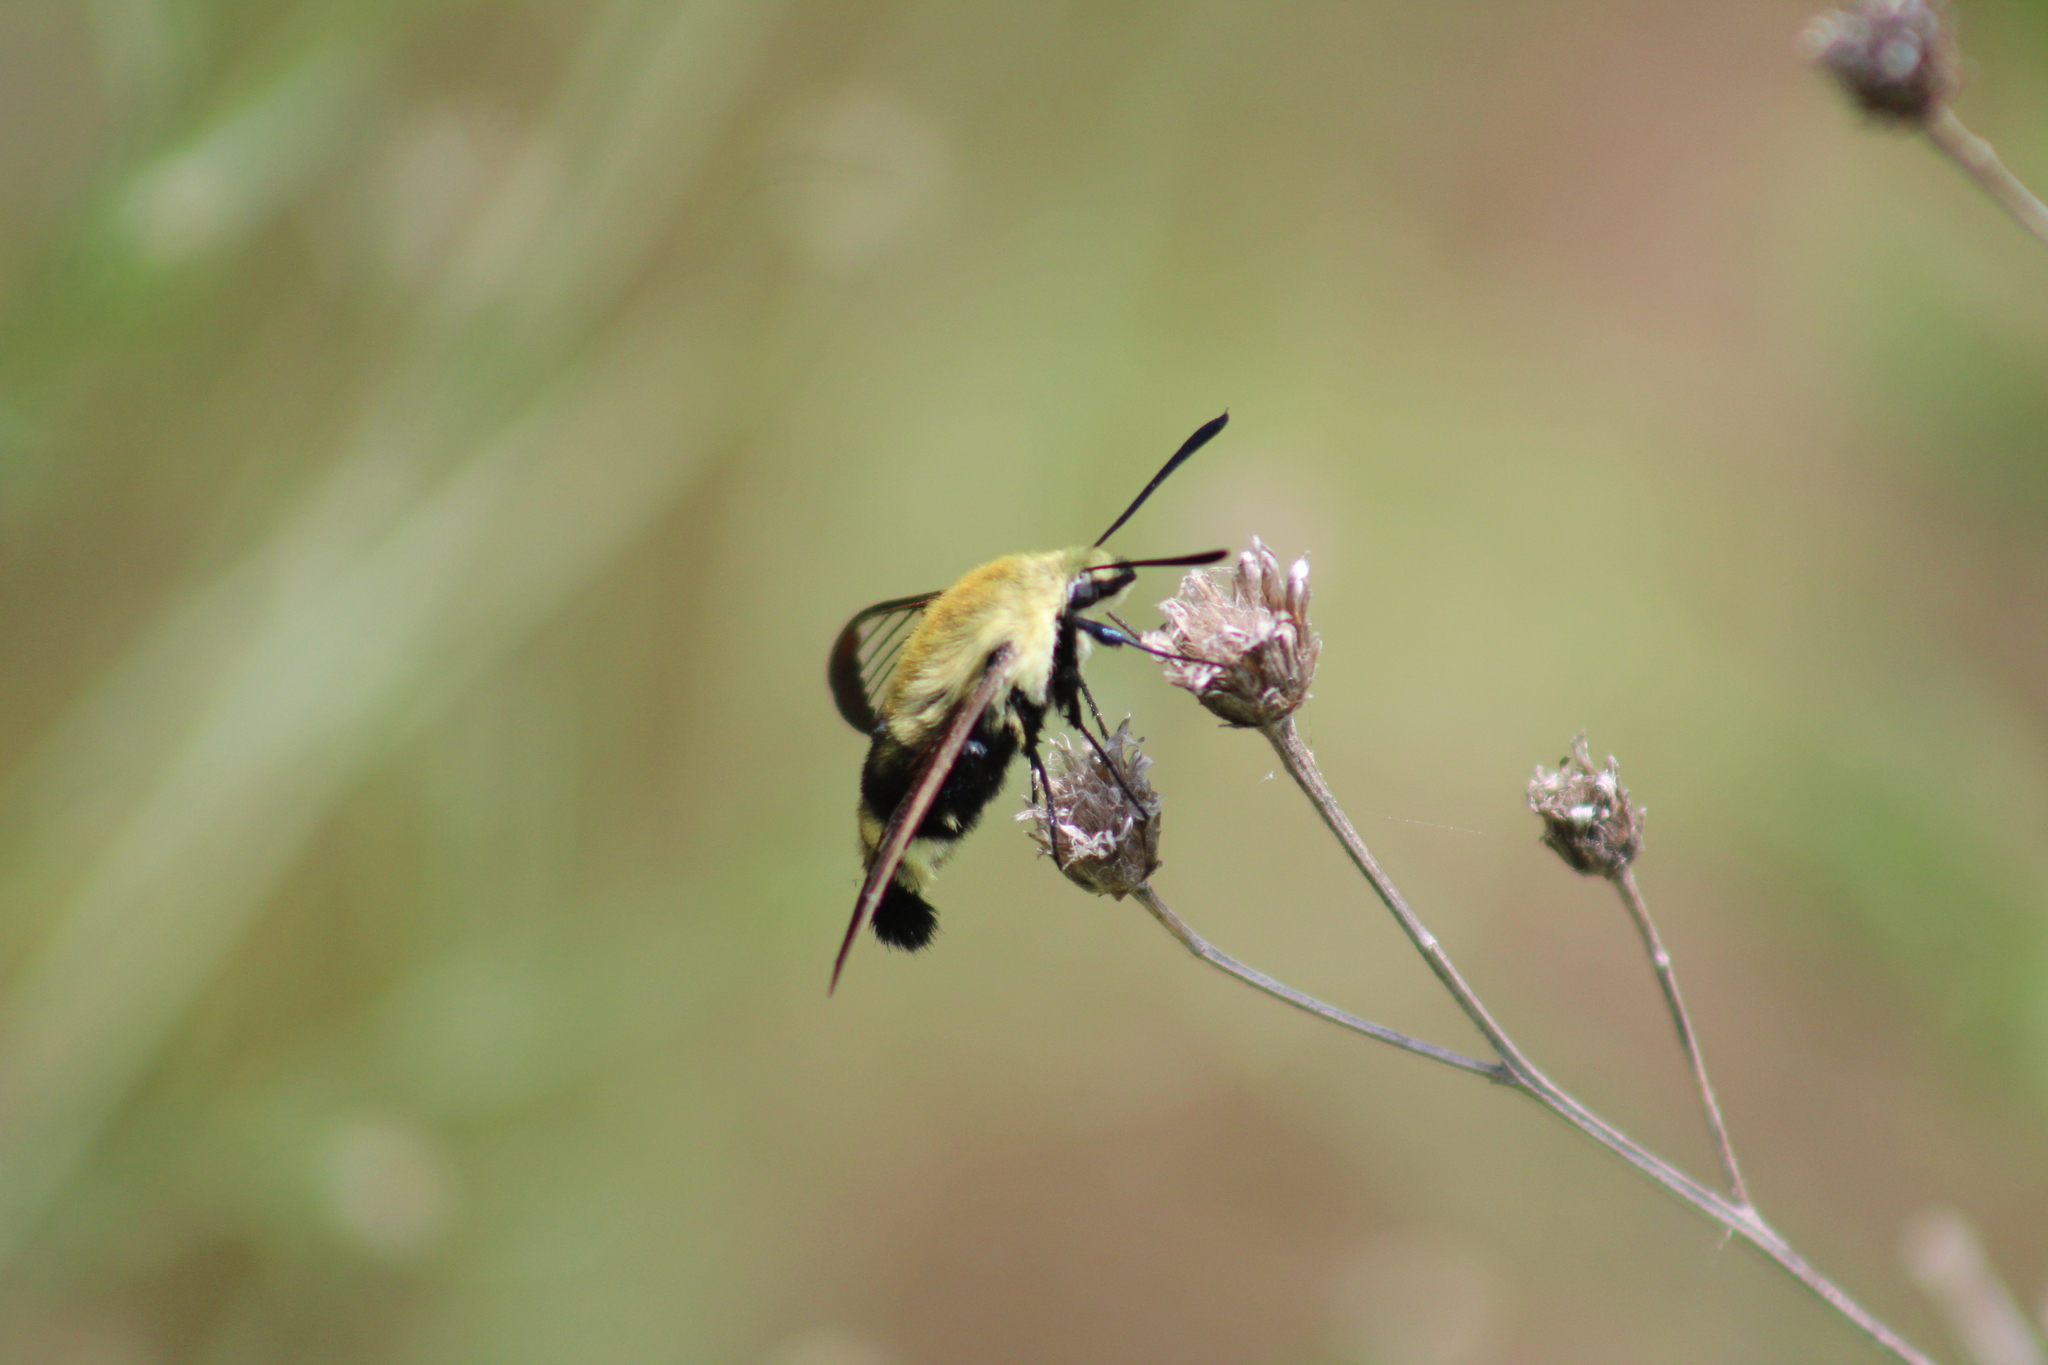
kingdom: Animalia
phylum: Arthropoda
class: Insecta
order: Lepidoptera
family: Sphingidae
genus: Hemaris
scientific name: Hemaris diffinis
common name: Bumblebee moth
